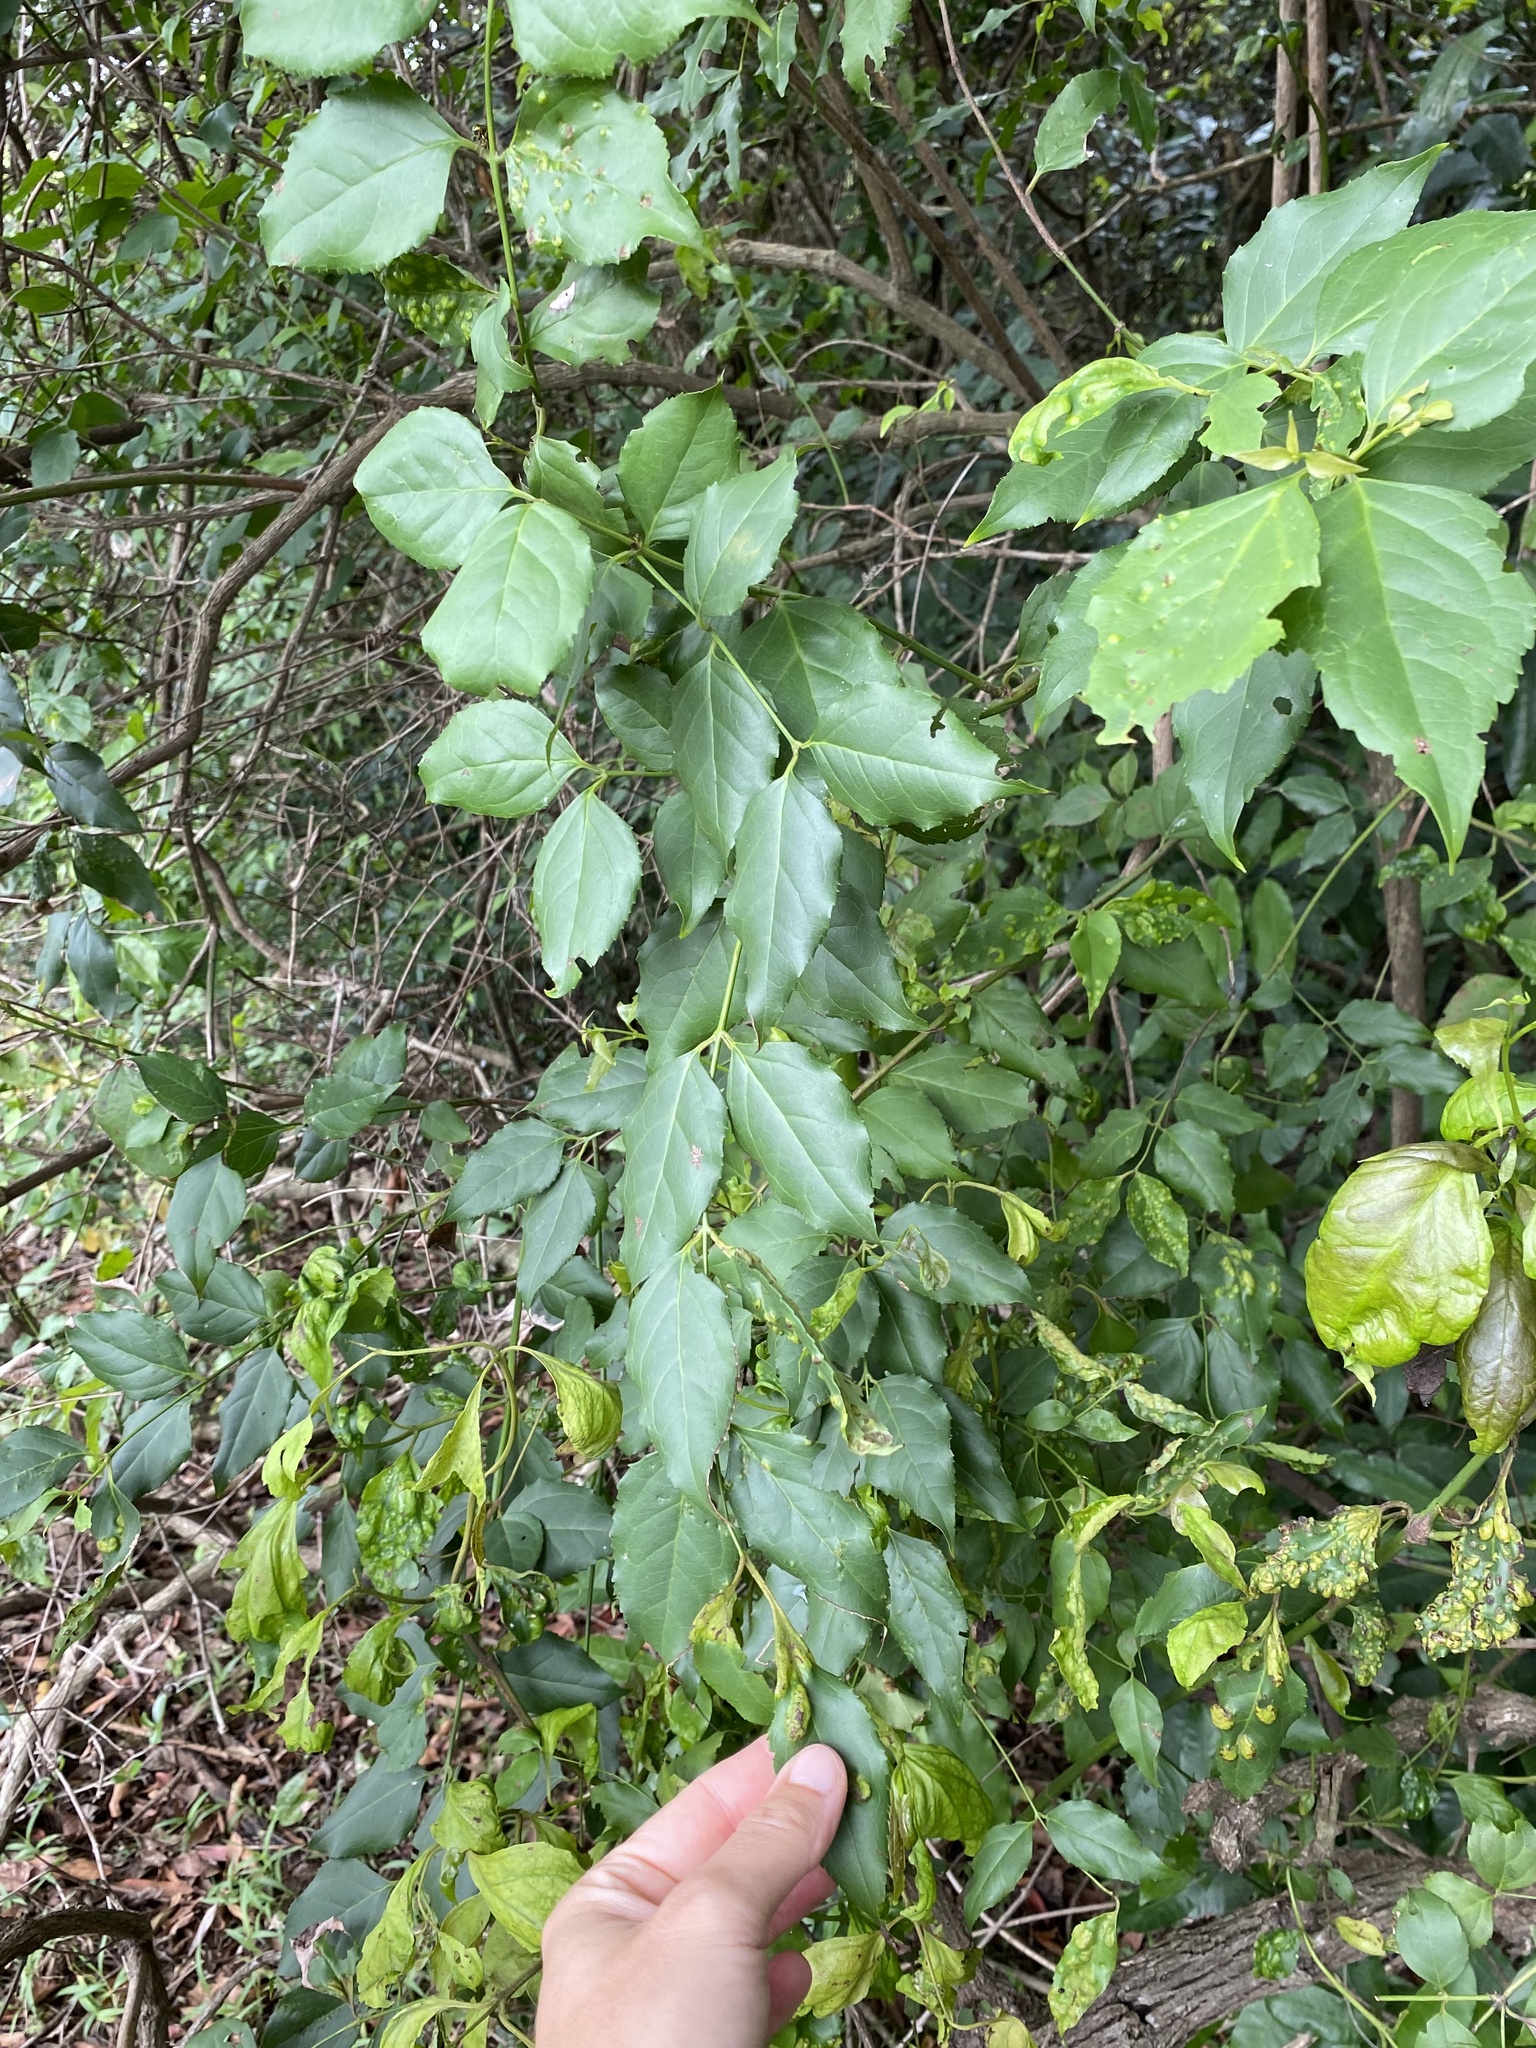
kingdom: Plantae
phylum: Tracheophyta
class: Magnoliopsida
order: Lamiales
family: Stilbaceae
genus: Halleria
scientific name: Halleria lucida
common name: Tree fuschia
